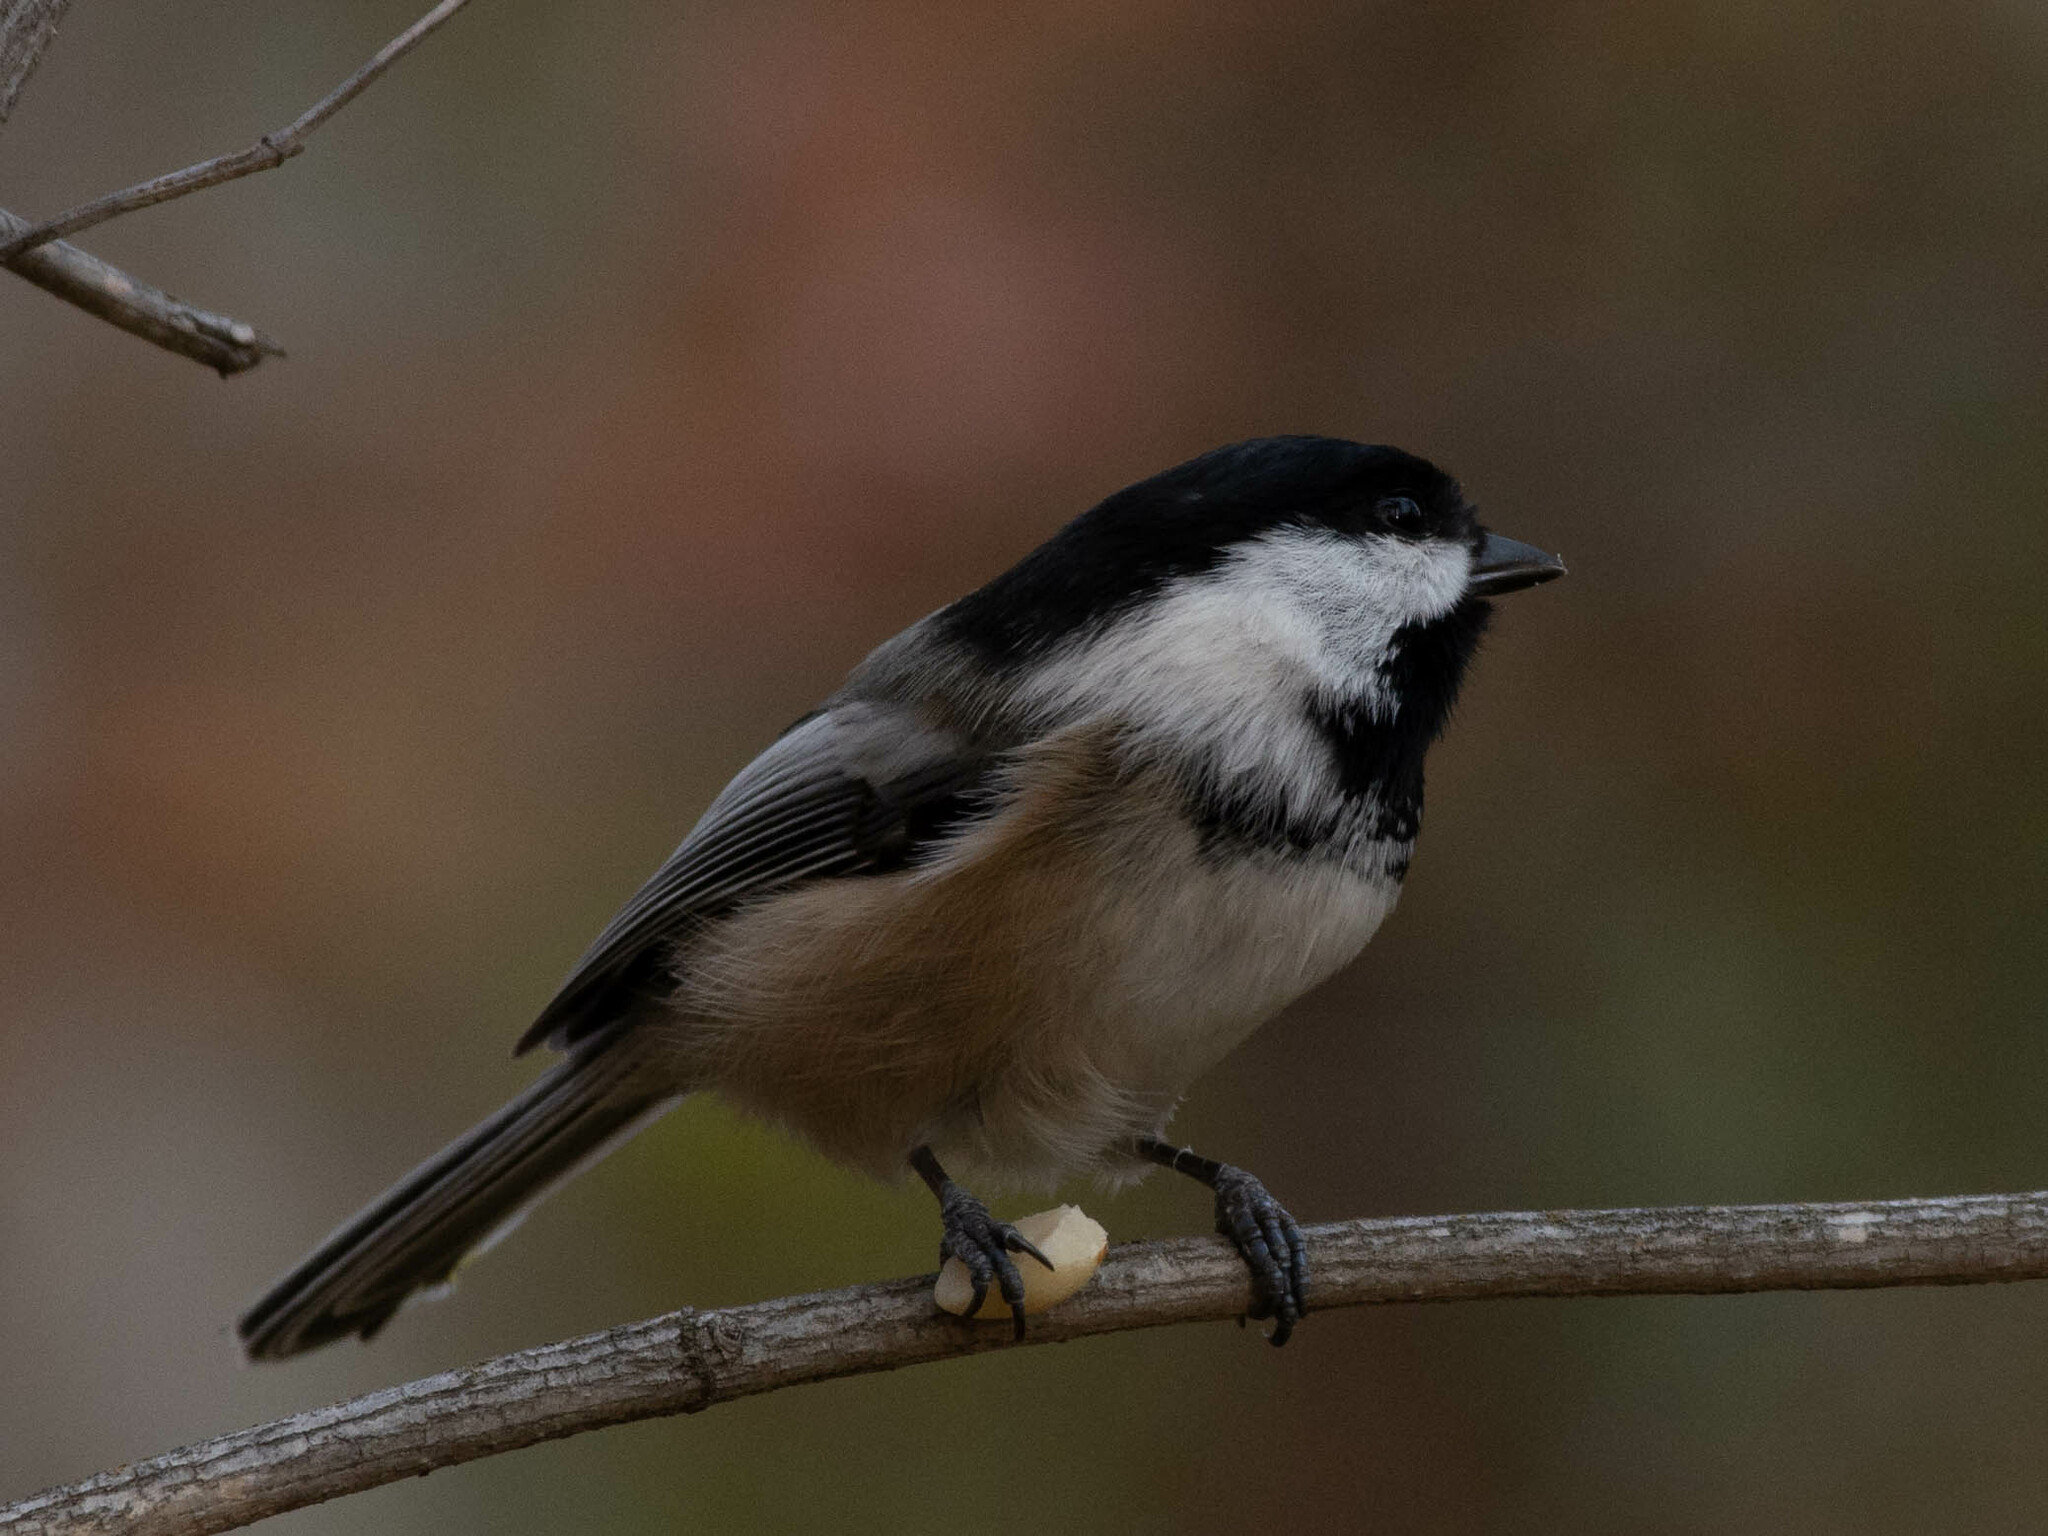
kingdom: Animalia
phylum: Chordata
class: Aves
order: Passeriformes
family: Paridae
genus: Poecile
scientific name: Poecile atricapillus
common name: Black-capped chickadee
